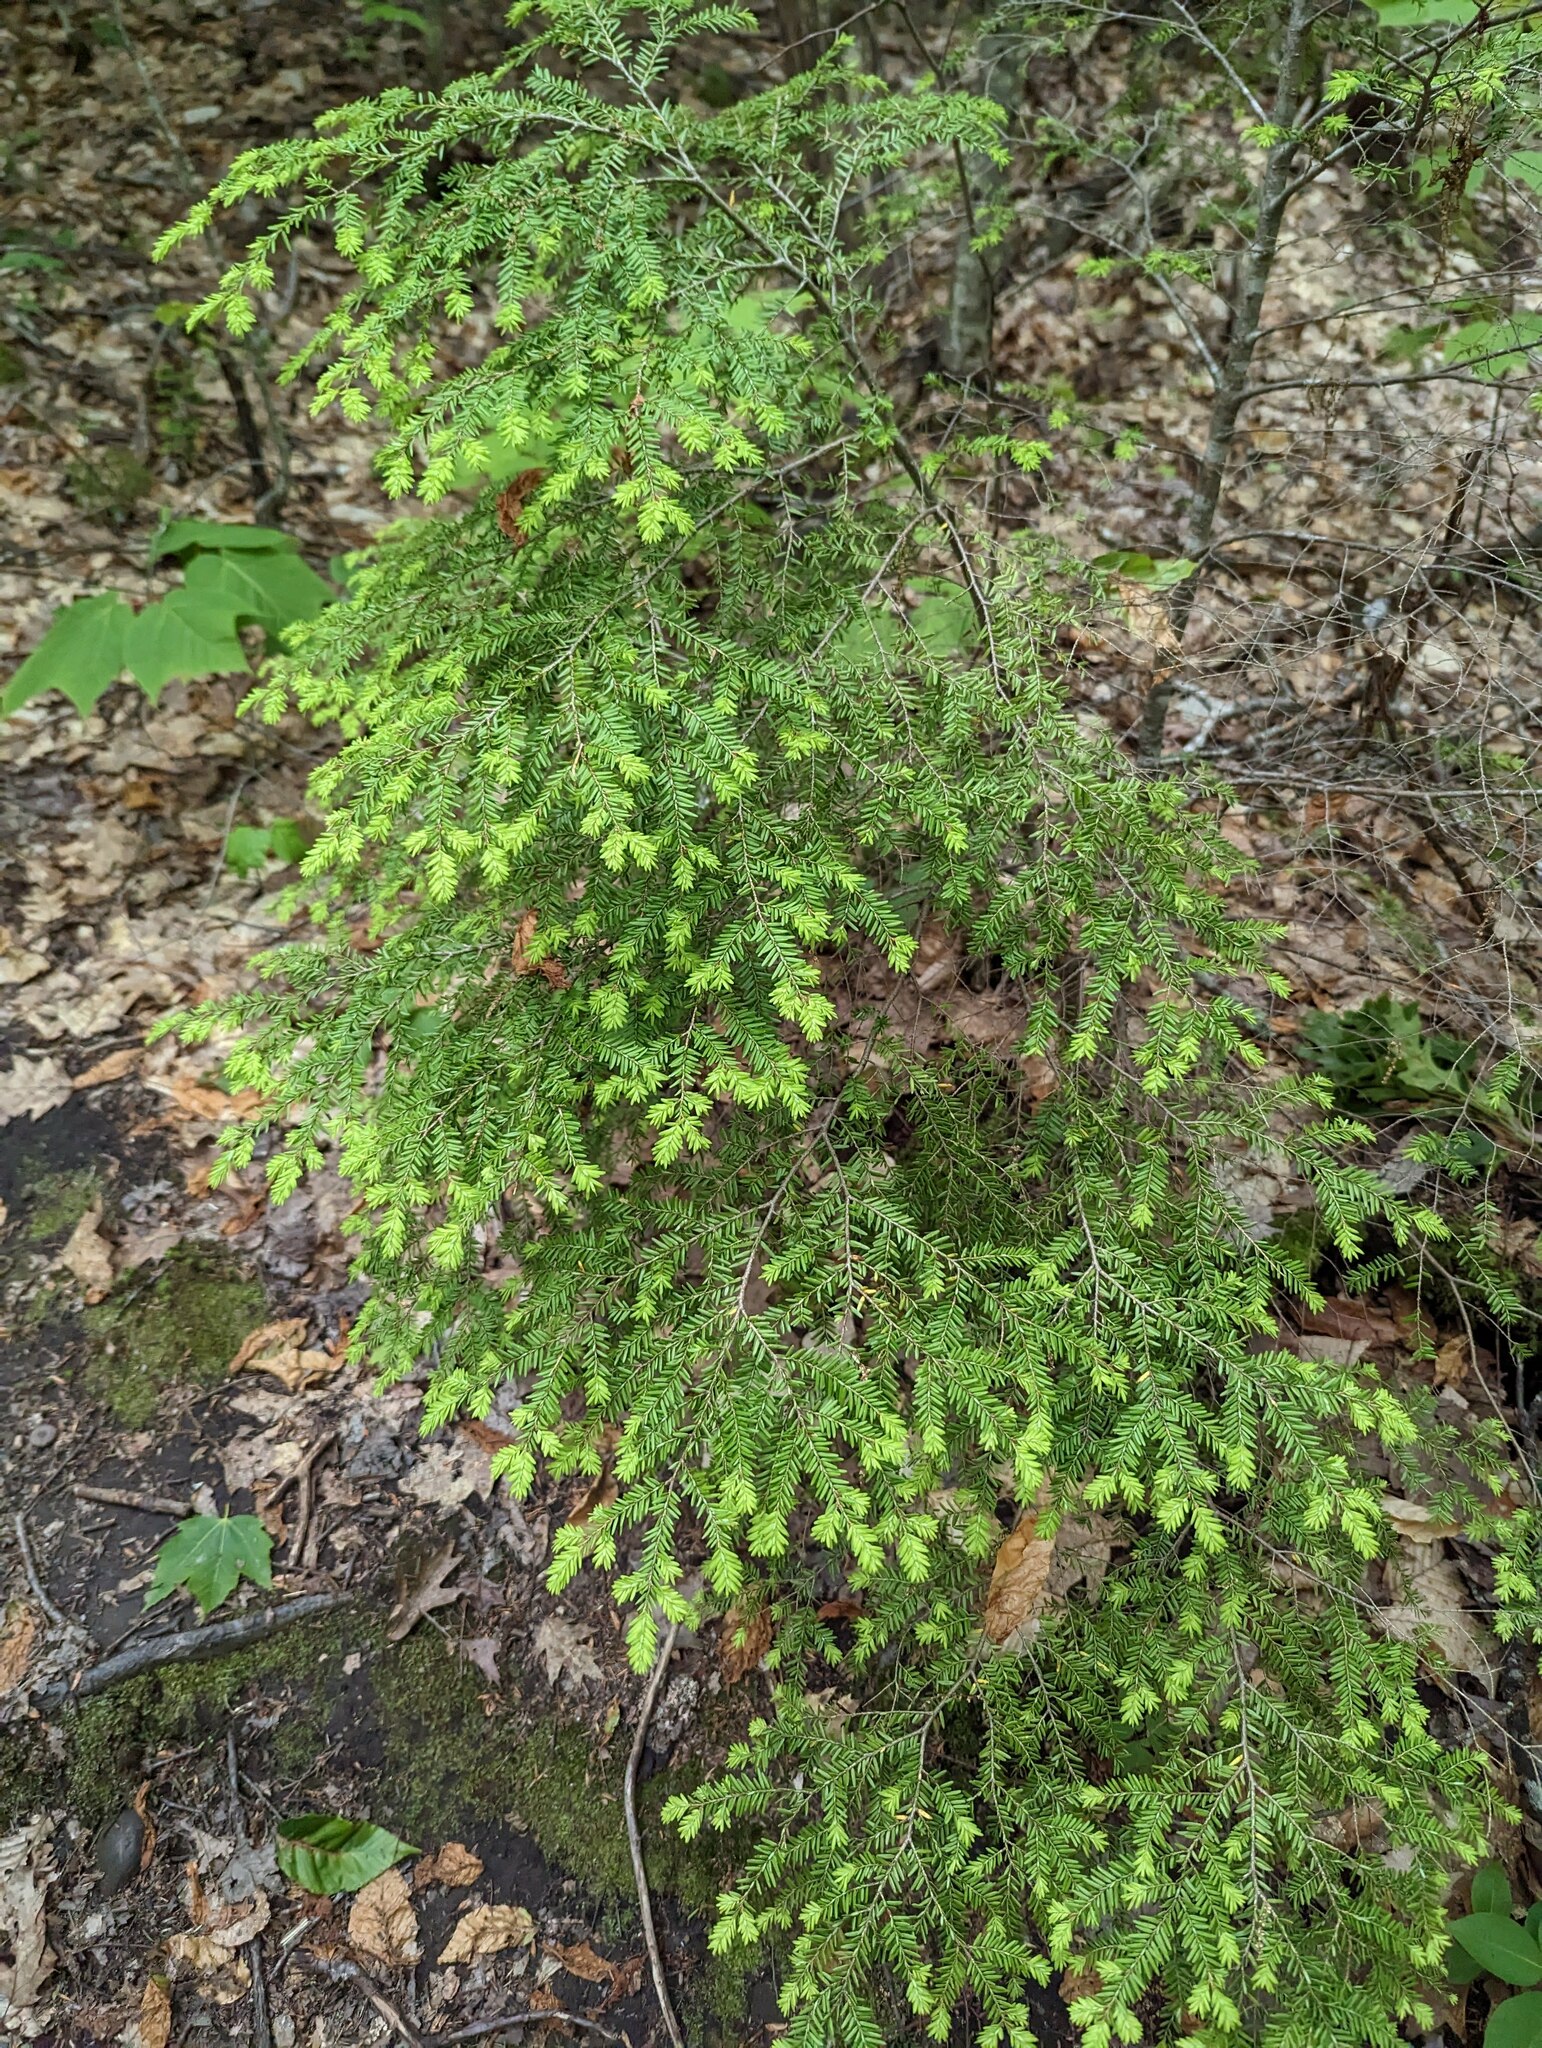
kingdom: Plantae
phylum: Tracheophyta
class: Pinopsida
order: Pinales
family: Pinaceae
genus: Tsuga
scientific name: Tsuga canadensis
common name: Eastern hemlock
